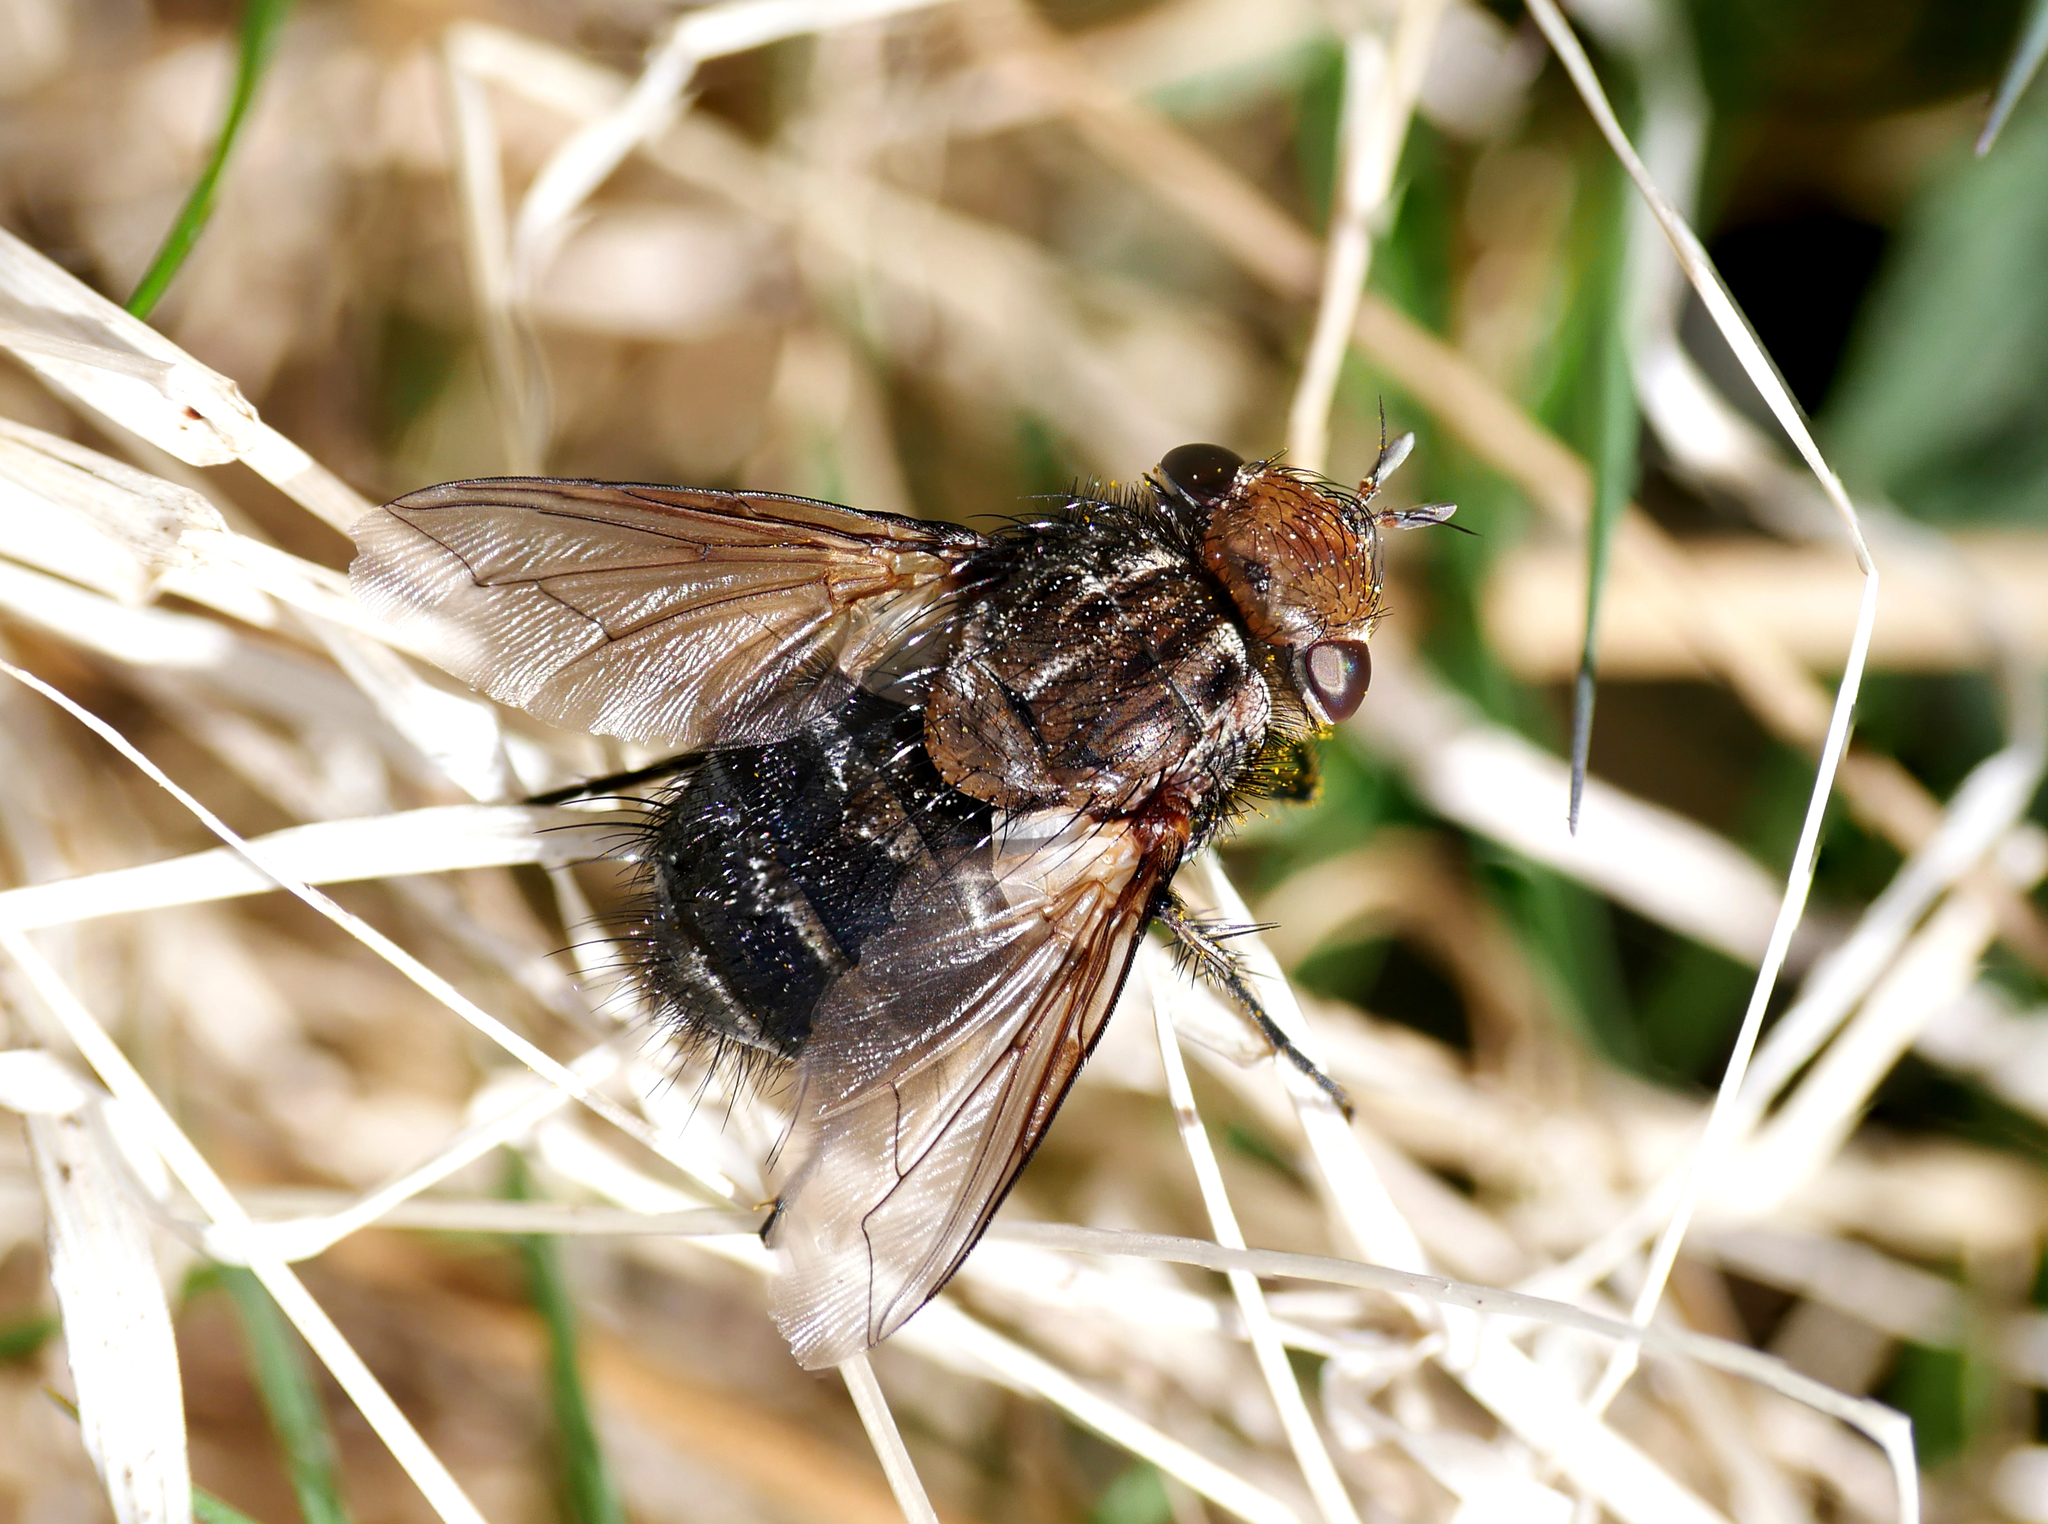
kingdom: Animalia
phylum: Arthropoda
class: Insecta
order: Diptera
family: Tachinidae
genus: Gonia
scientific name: Gonia picea
